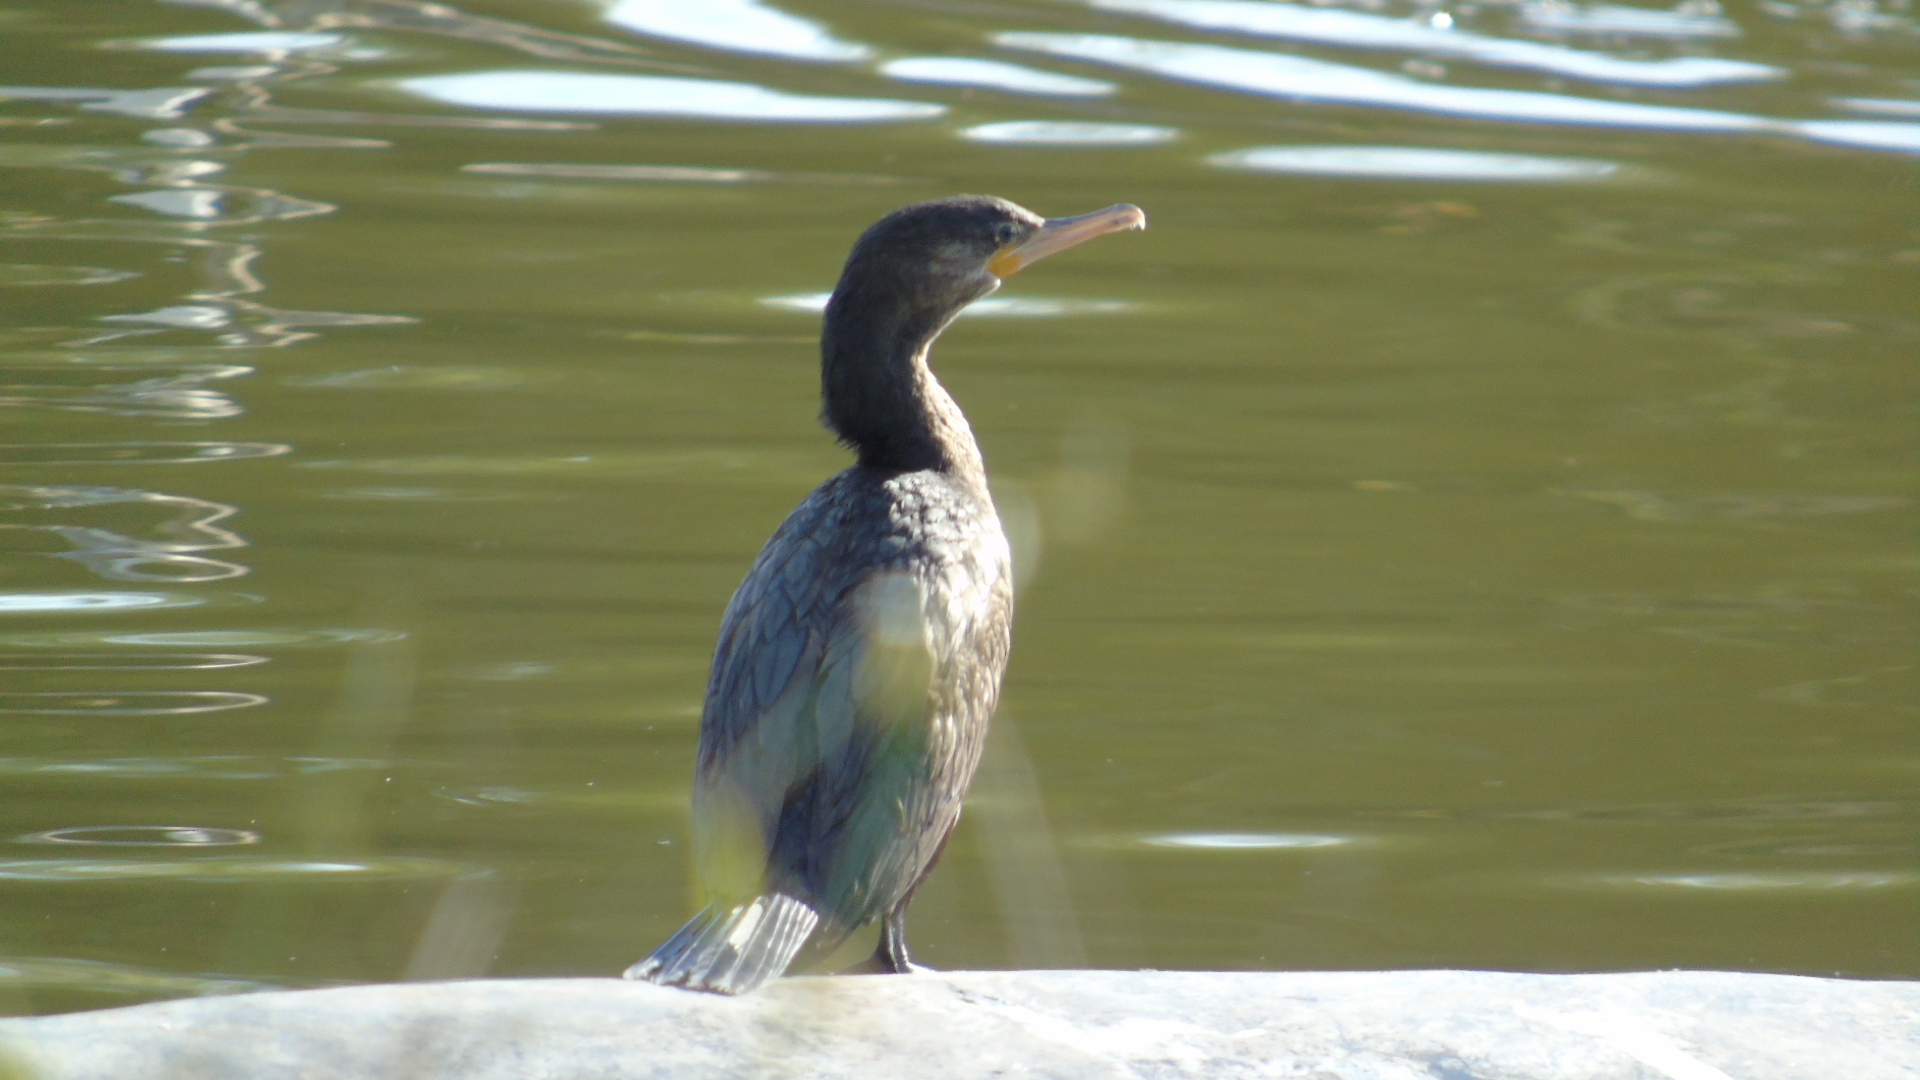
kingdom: Animalia
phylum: Chordata
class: Aves
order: Suliformes
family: Phalacrocoracidae
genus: Phalacrocorax
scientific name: Phalacrocorax brasilianus
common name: Neotropic cormorant
